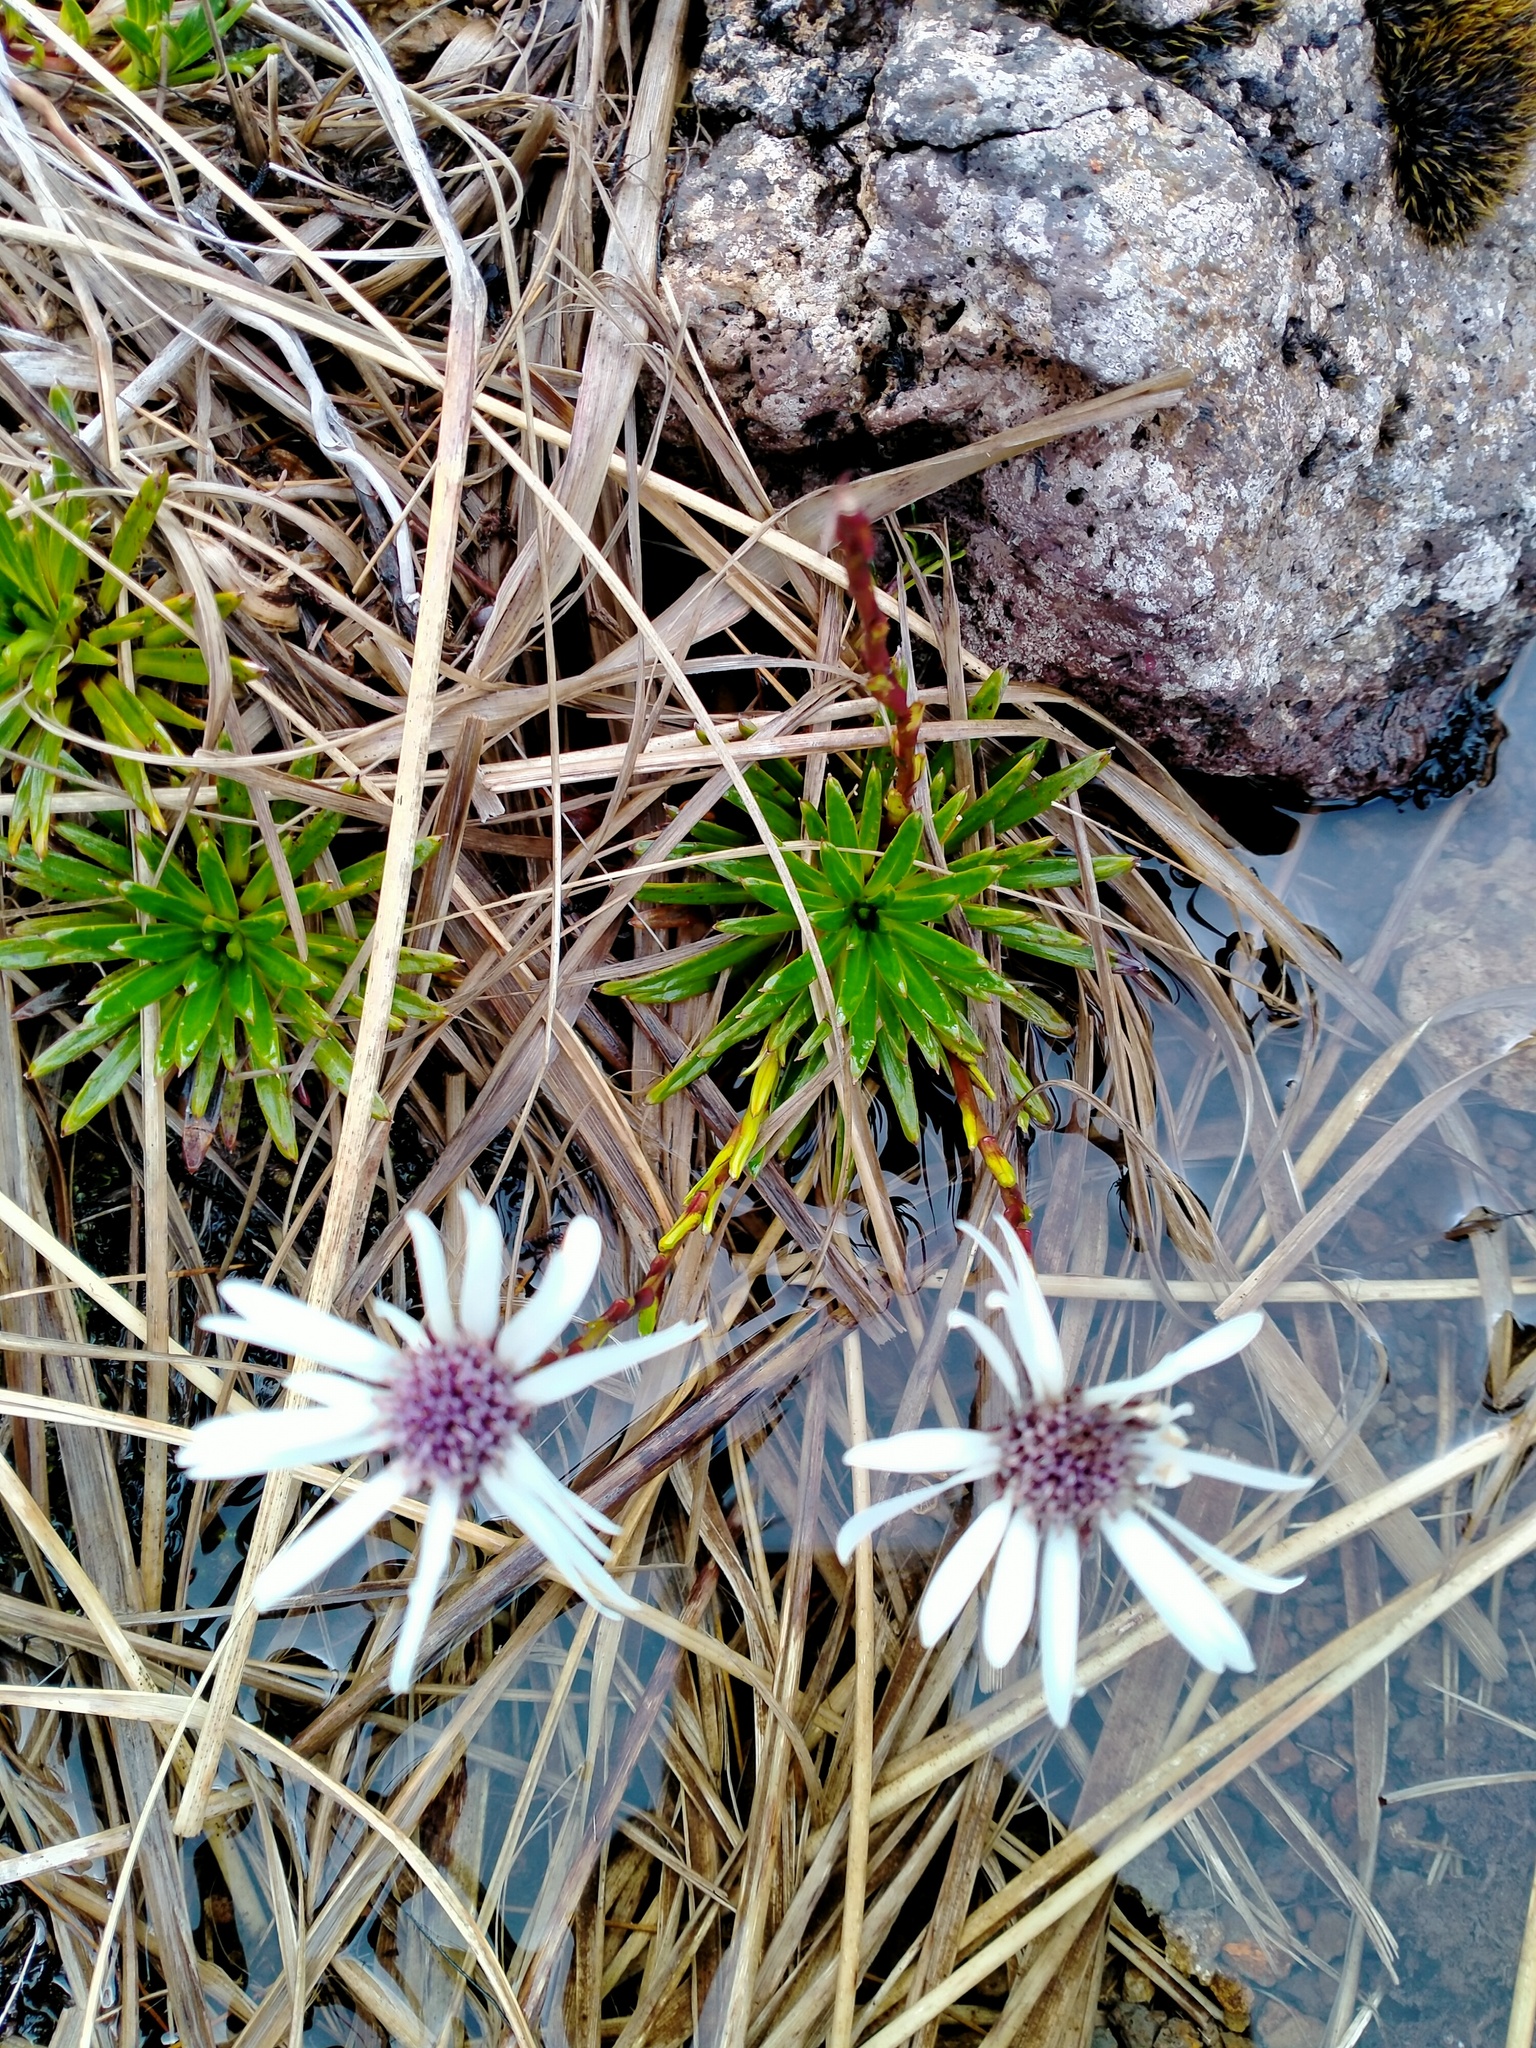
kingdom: Plantae
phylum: Tracheophyta
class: Magnoliopsida
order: Asterales
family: Asteraceae
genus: Damnamenia
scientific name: Damnamenia vernicosa
